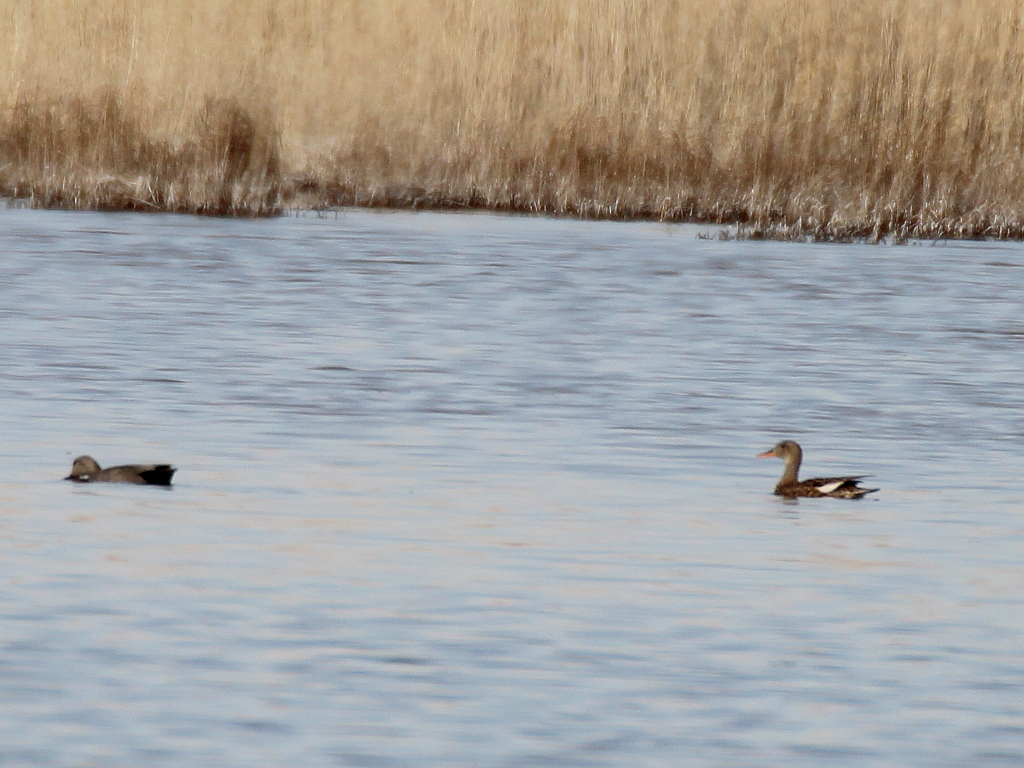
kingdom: Animalia
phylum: Chordata
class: Aves
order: Anseriformes
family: Anatidae
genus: Mareca
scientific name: Mareca strepera
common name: Gadwall
